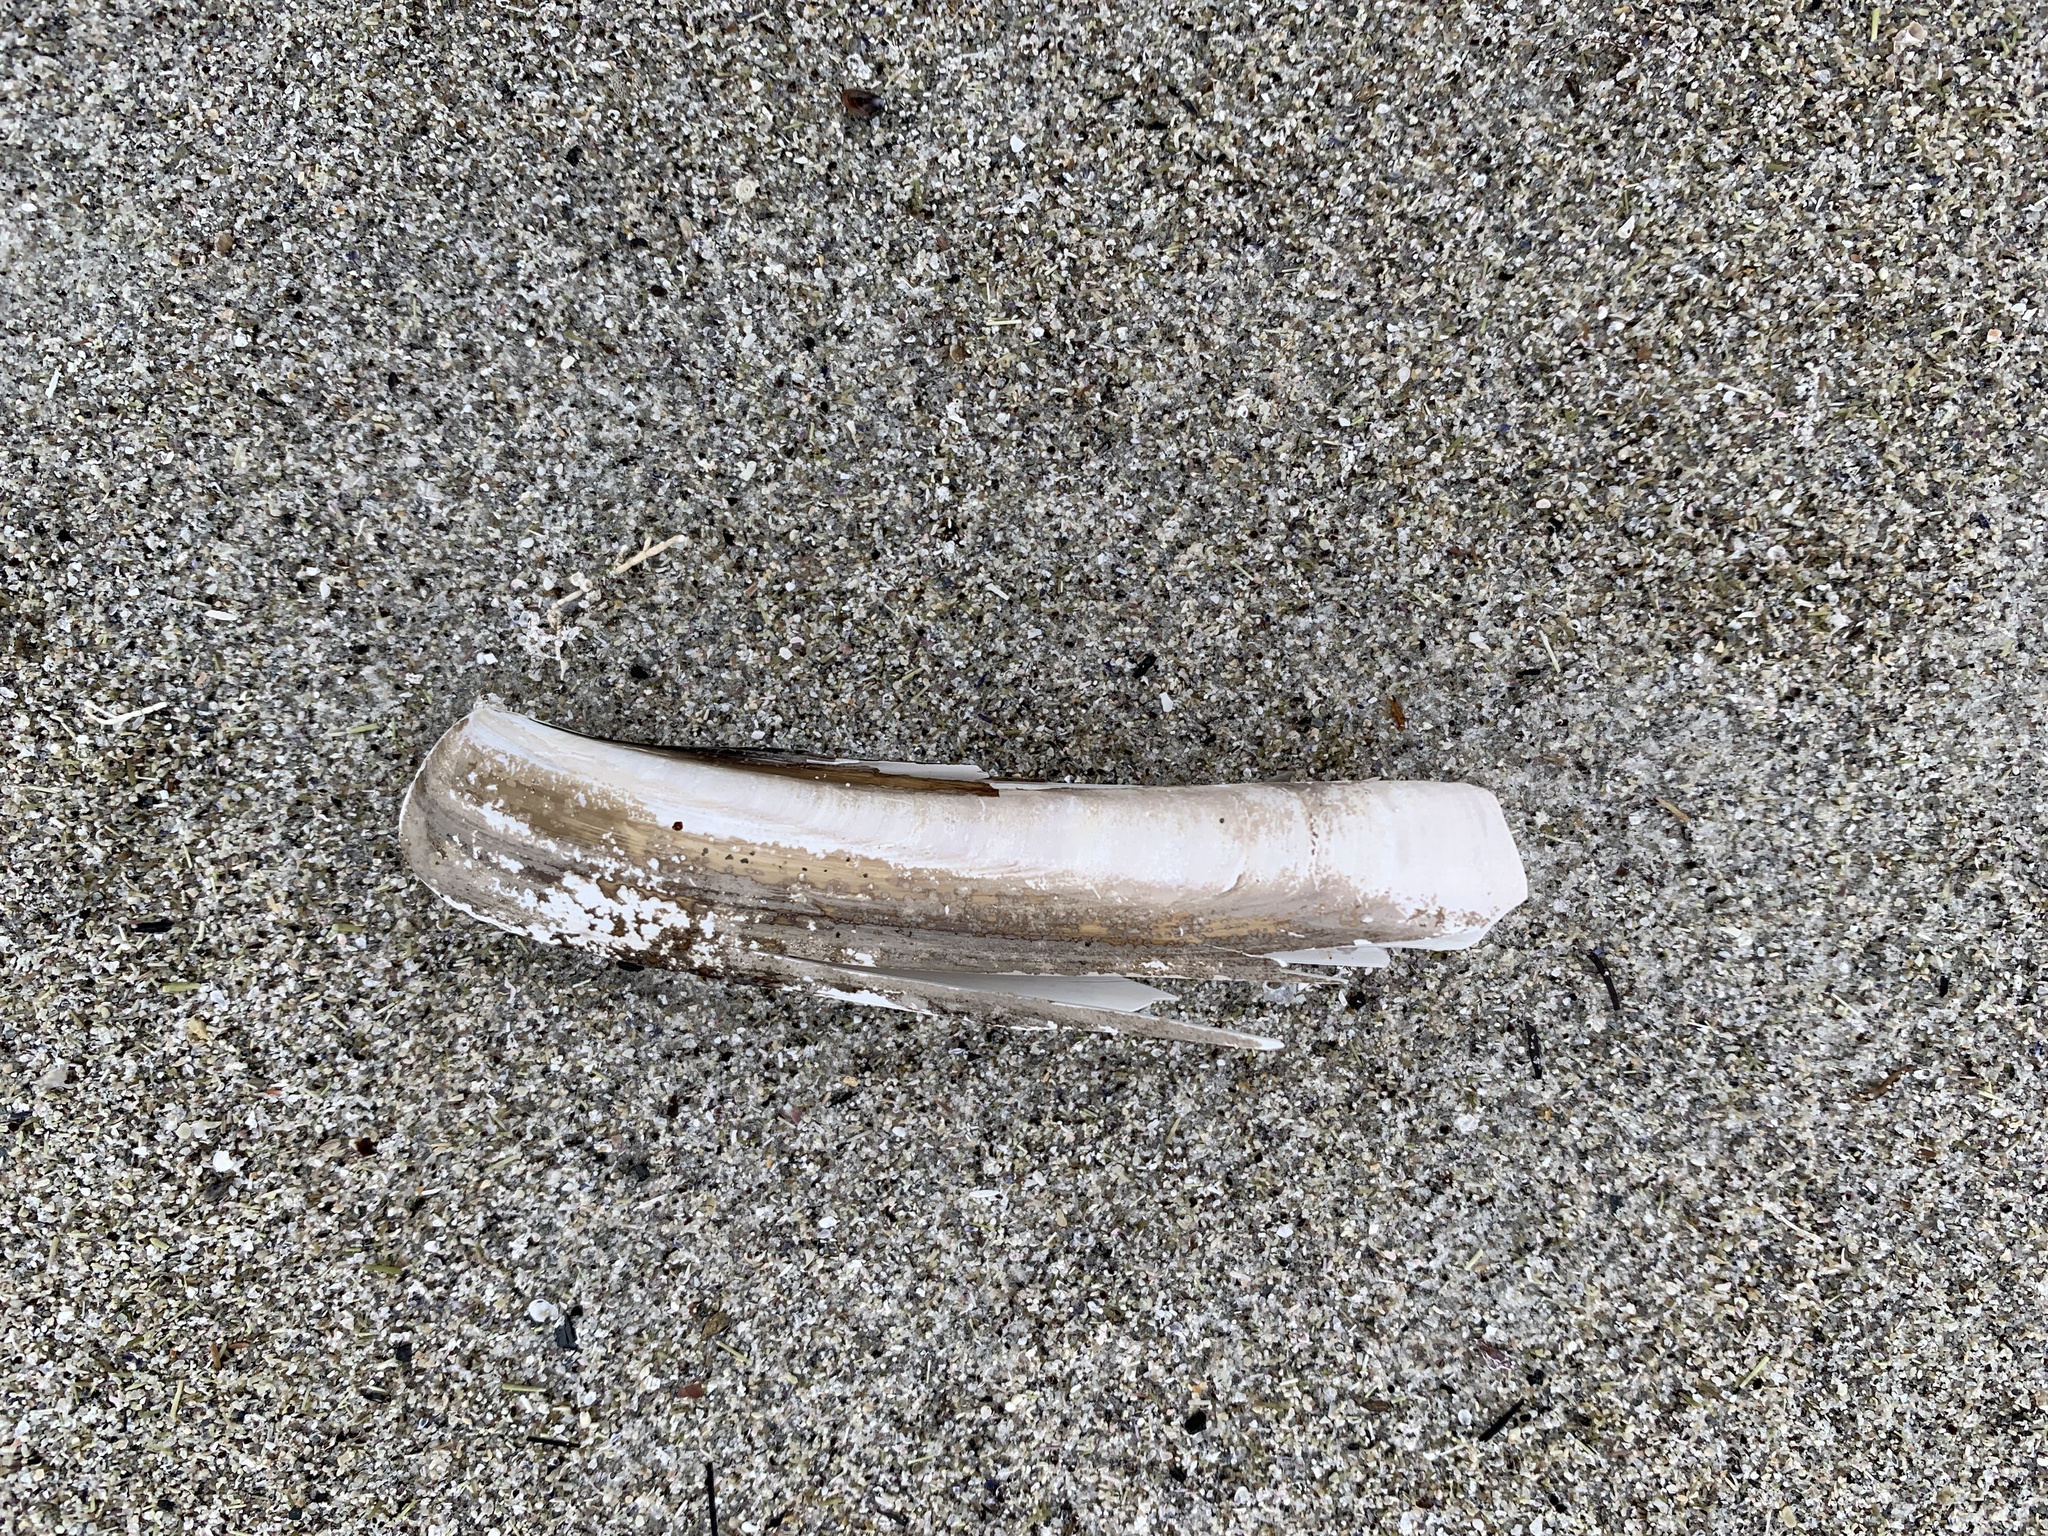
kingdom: Animalia
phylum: Mollusca
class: Bivalvia
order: Adapedonta
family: Pharidae
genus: Ensis
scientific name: Ensis leei
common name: American jack knife clam
